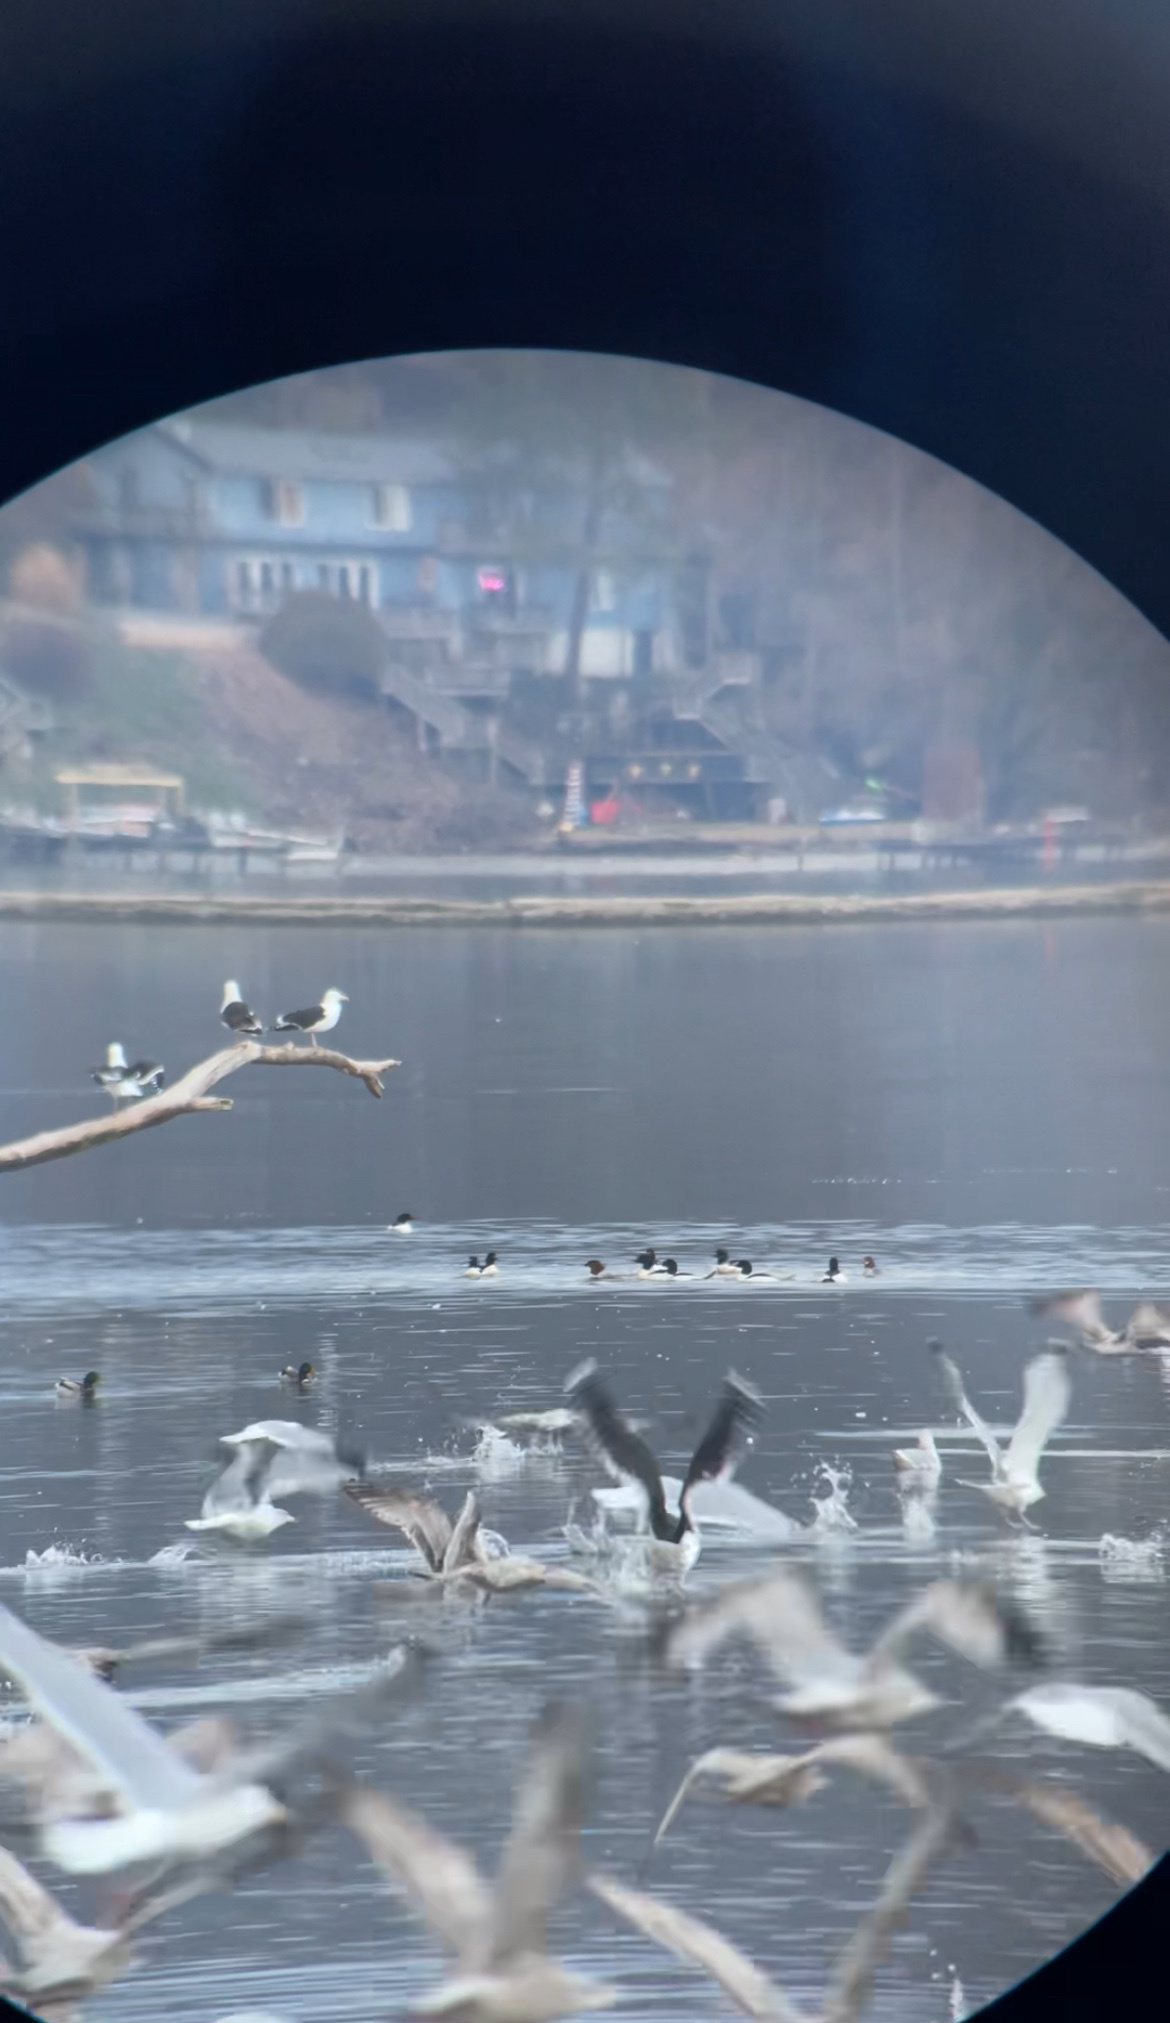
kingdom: Animalia
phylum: Chordata
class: Aves
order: Anseriformes
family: Anatidae
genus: Mergus
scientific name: Mergus merganser
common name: Common merganser
